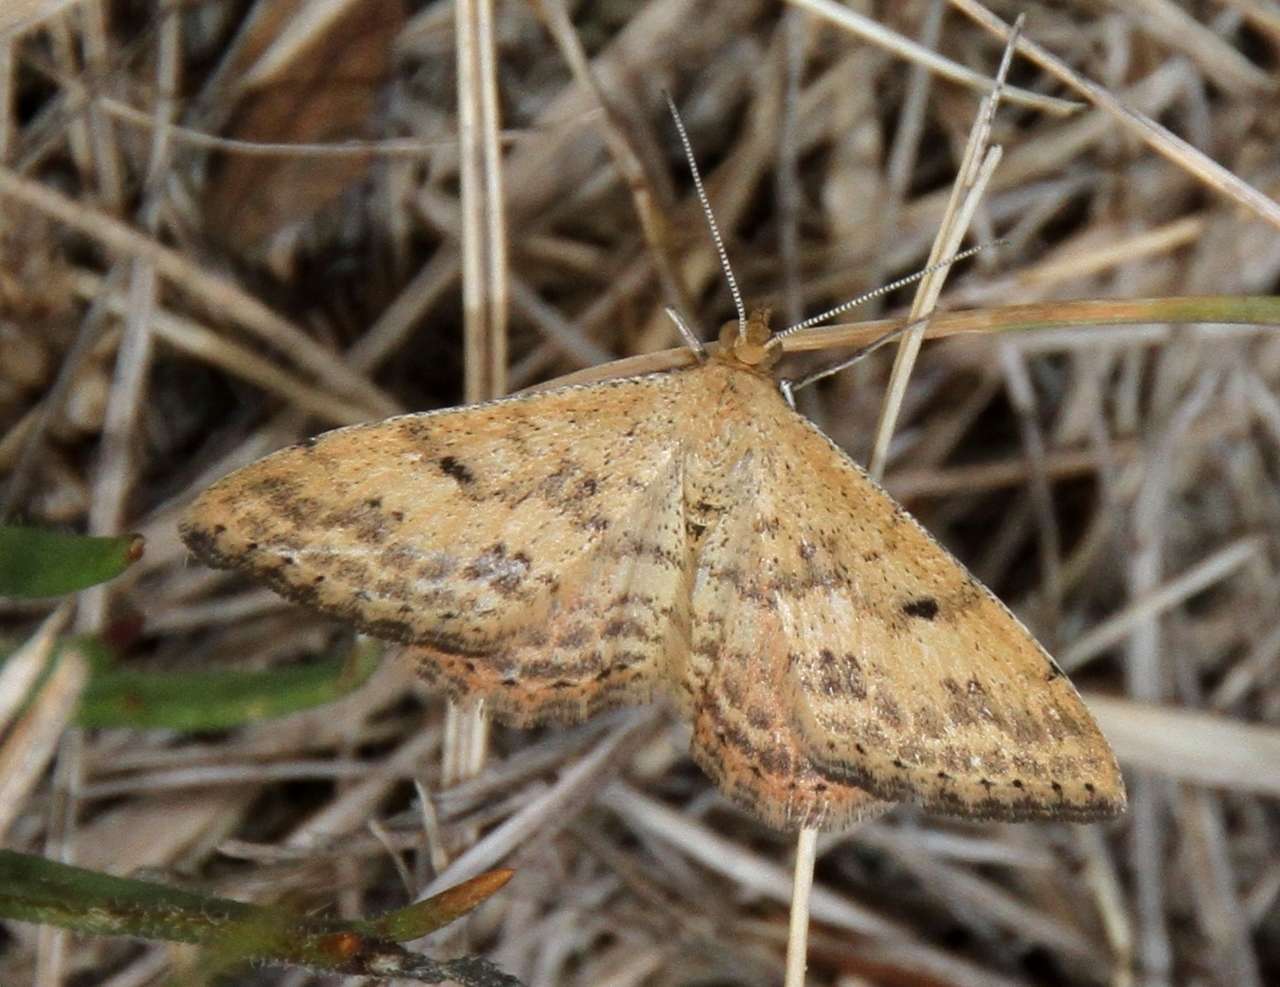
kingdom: Animalia
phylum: Arthropoda
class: Insecta
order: Lepidoptera
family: Geometridae
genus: Scopula
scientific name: Scopula rubraria
